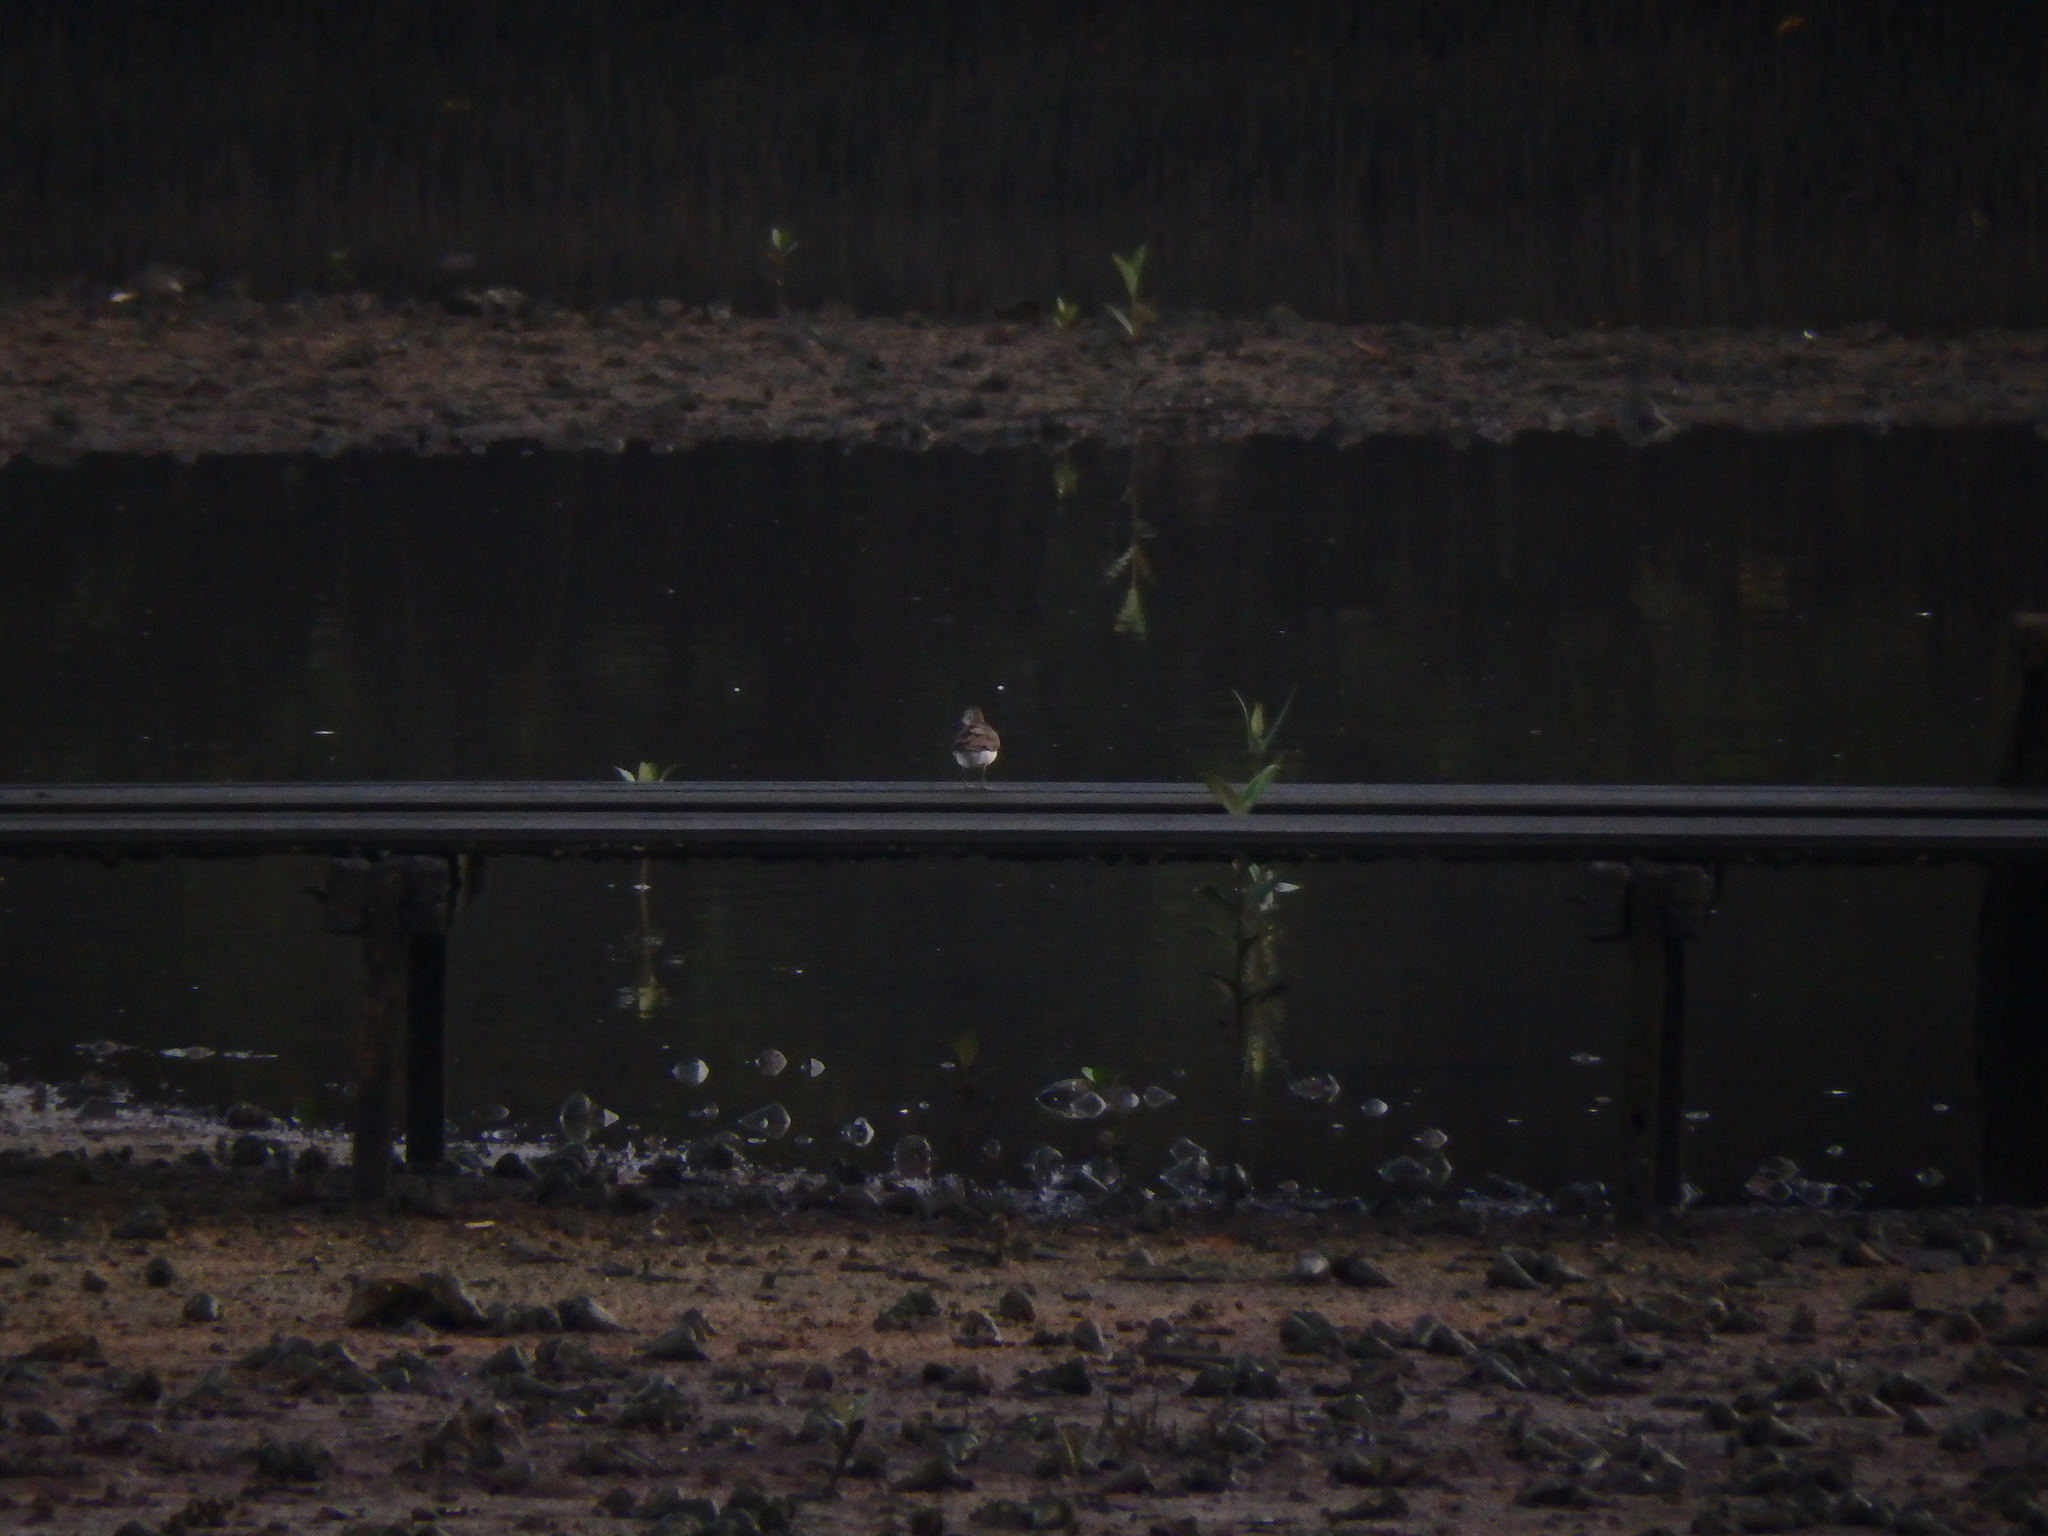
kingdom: Animalia
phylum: Chordata
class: Aves
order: Charadriiformes
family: Scolopacidae
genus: Actitis
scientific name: Actitis hypoleucos
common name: Common sandpiper
